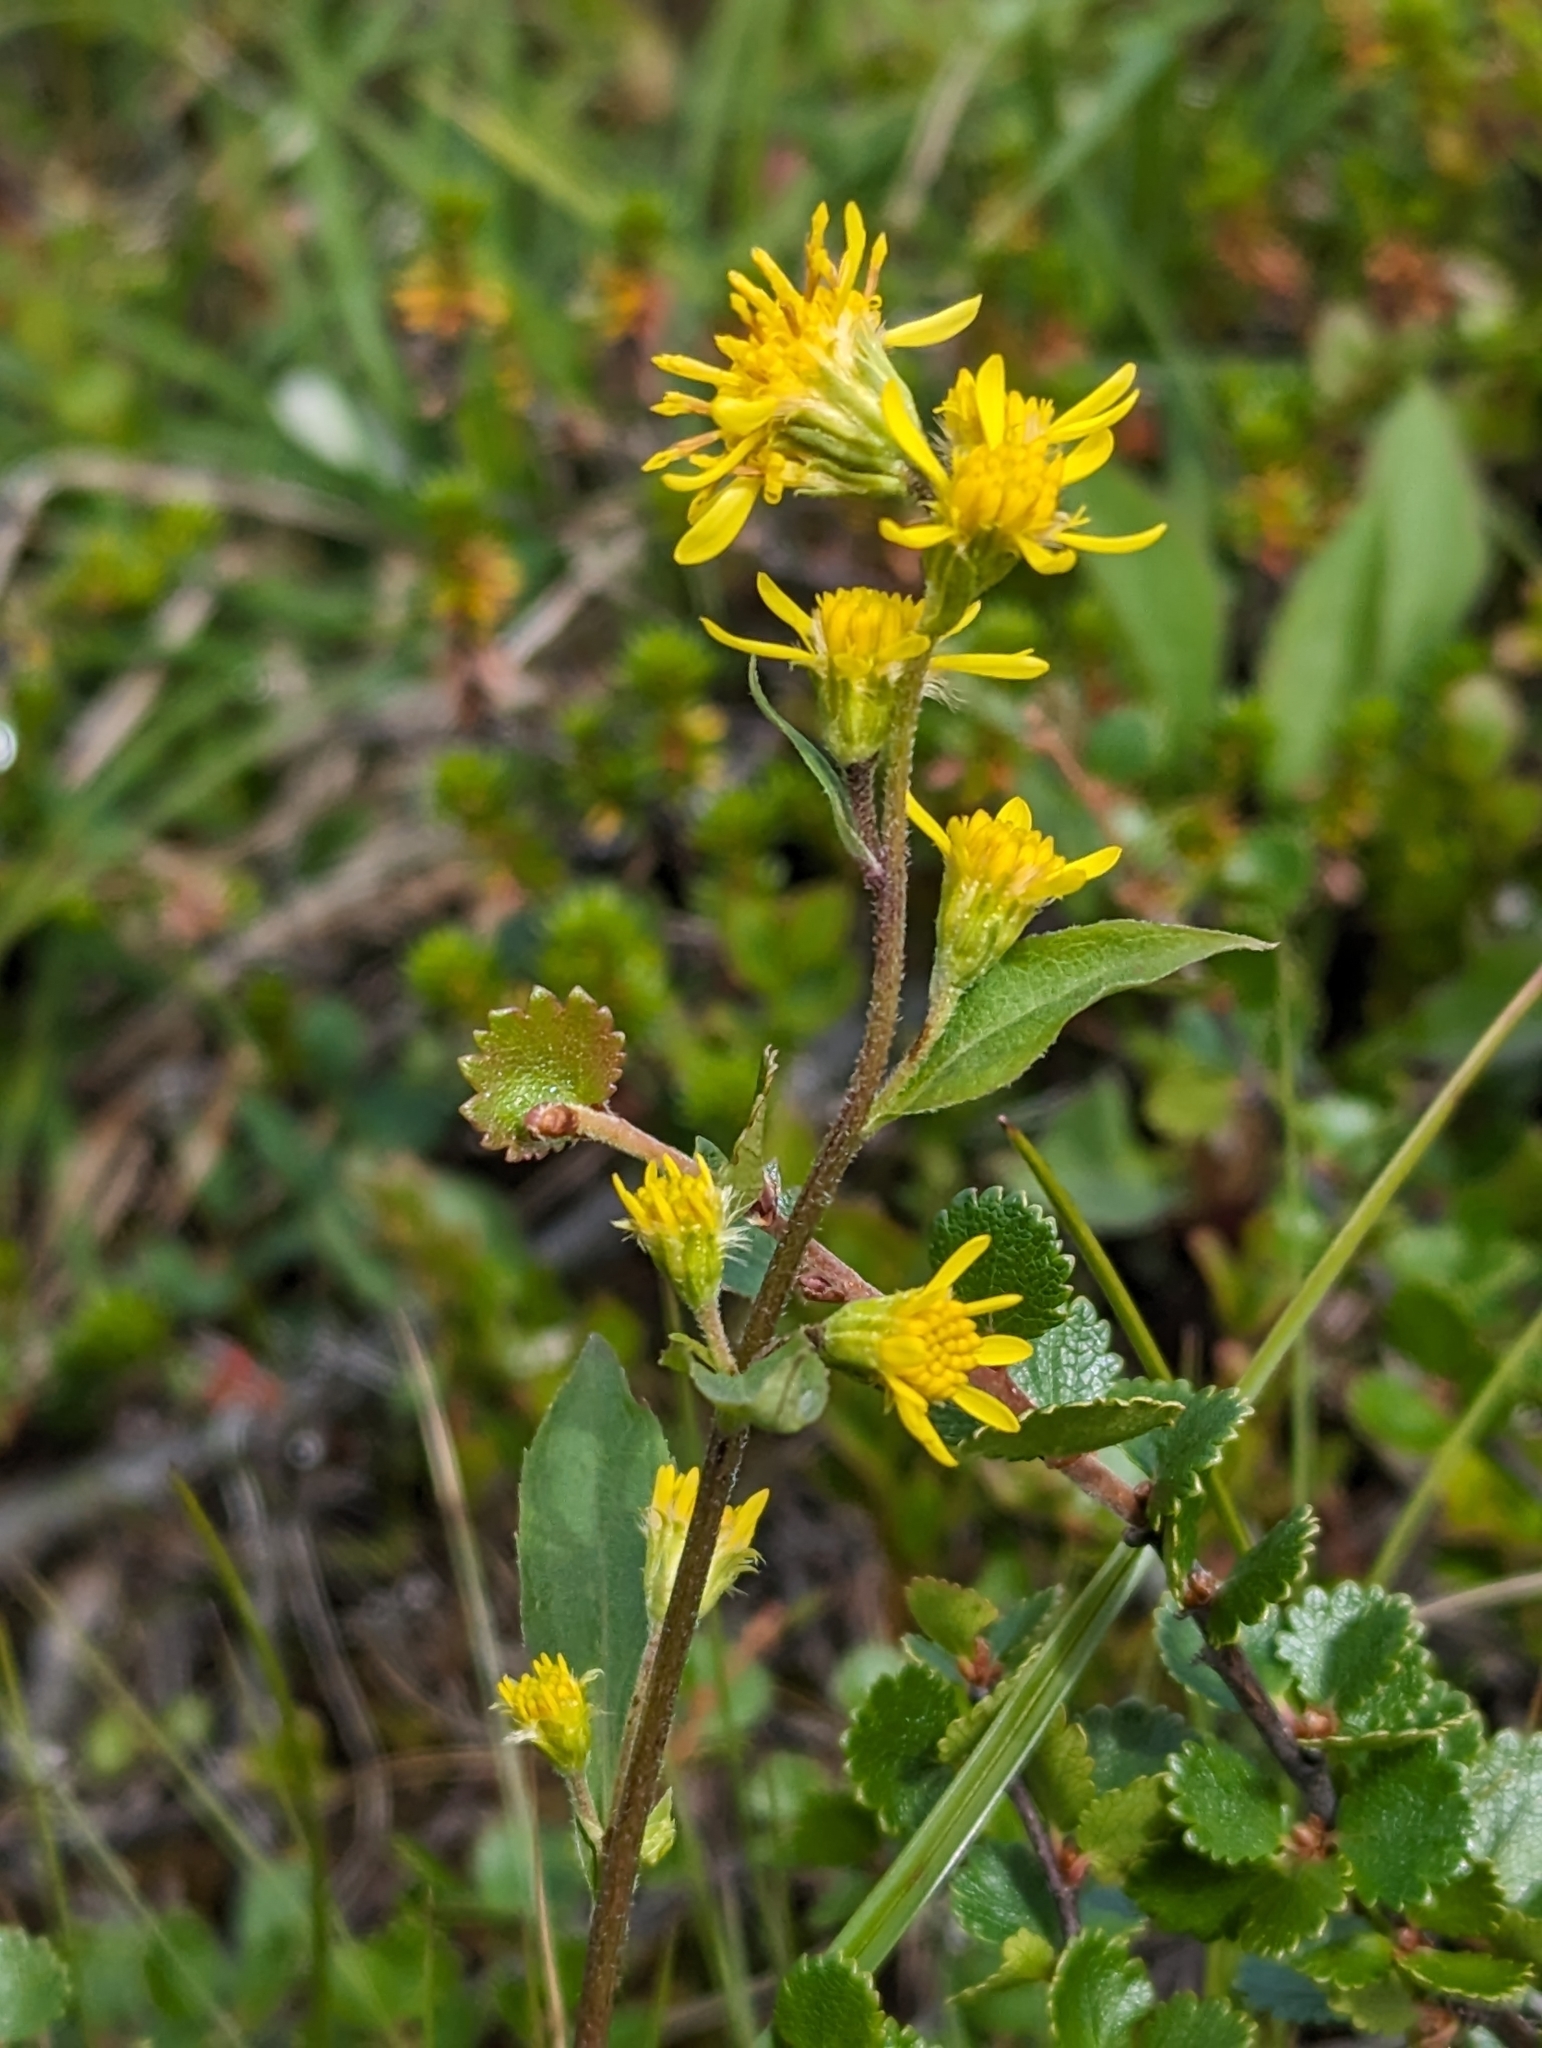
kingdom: Plantae
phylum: Tracheophyta
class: Magnoliopsida
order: Asterales
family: Asteraceae
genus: Solidago
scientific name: Solidago virgaurea
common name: Goldenrod
